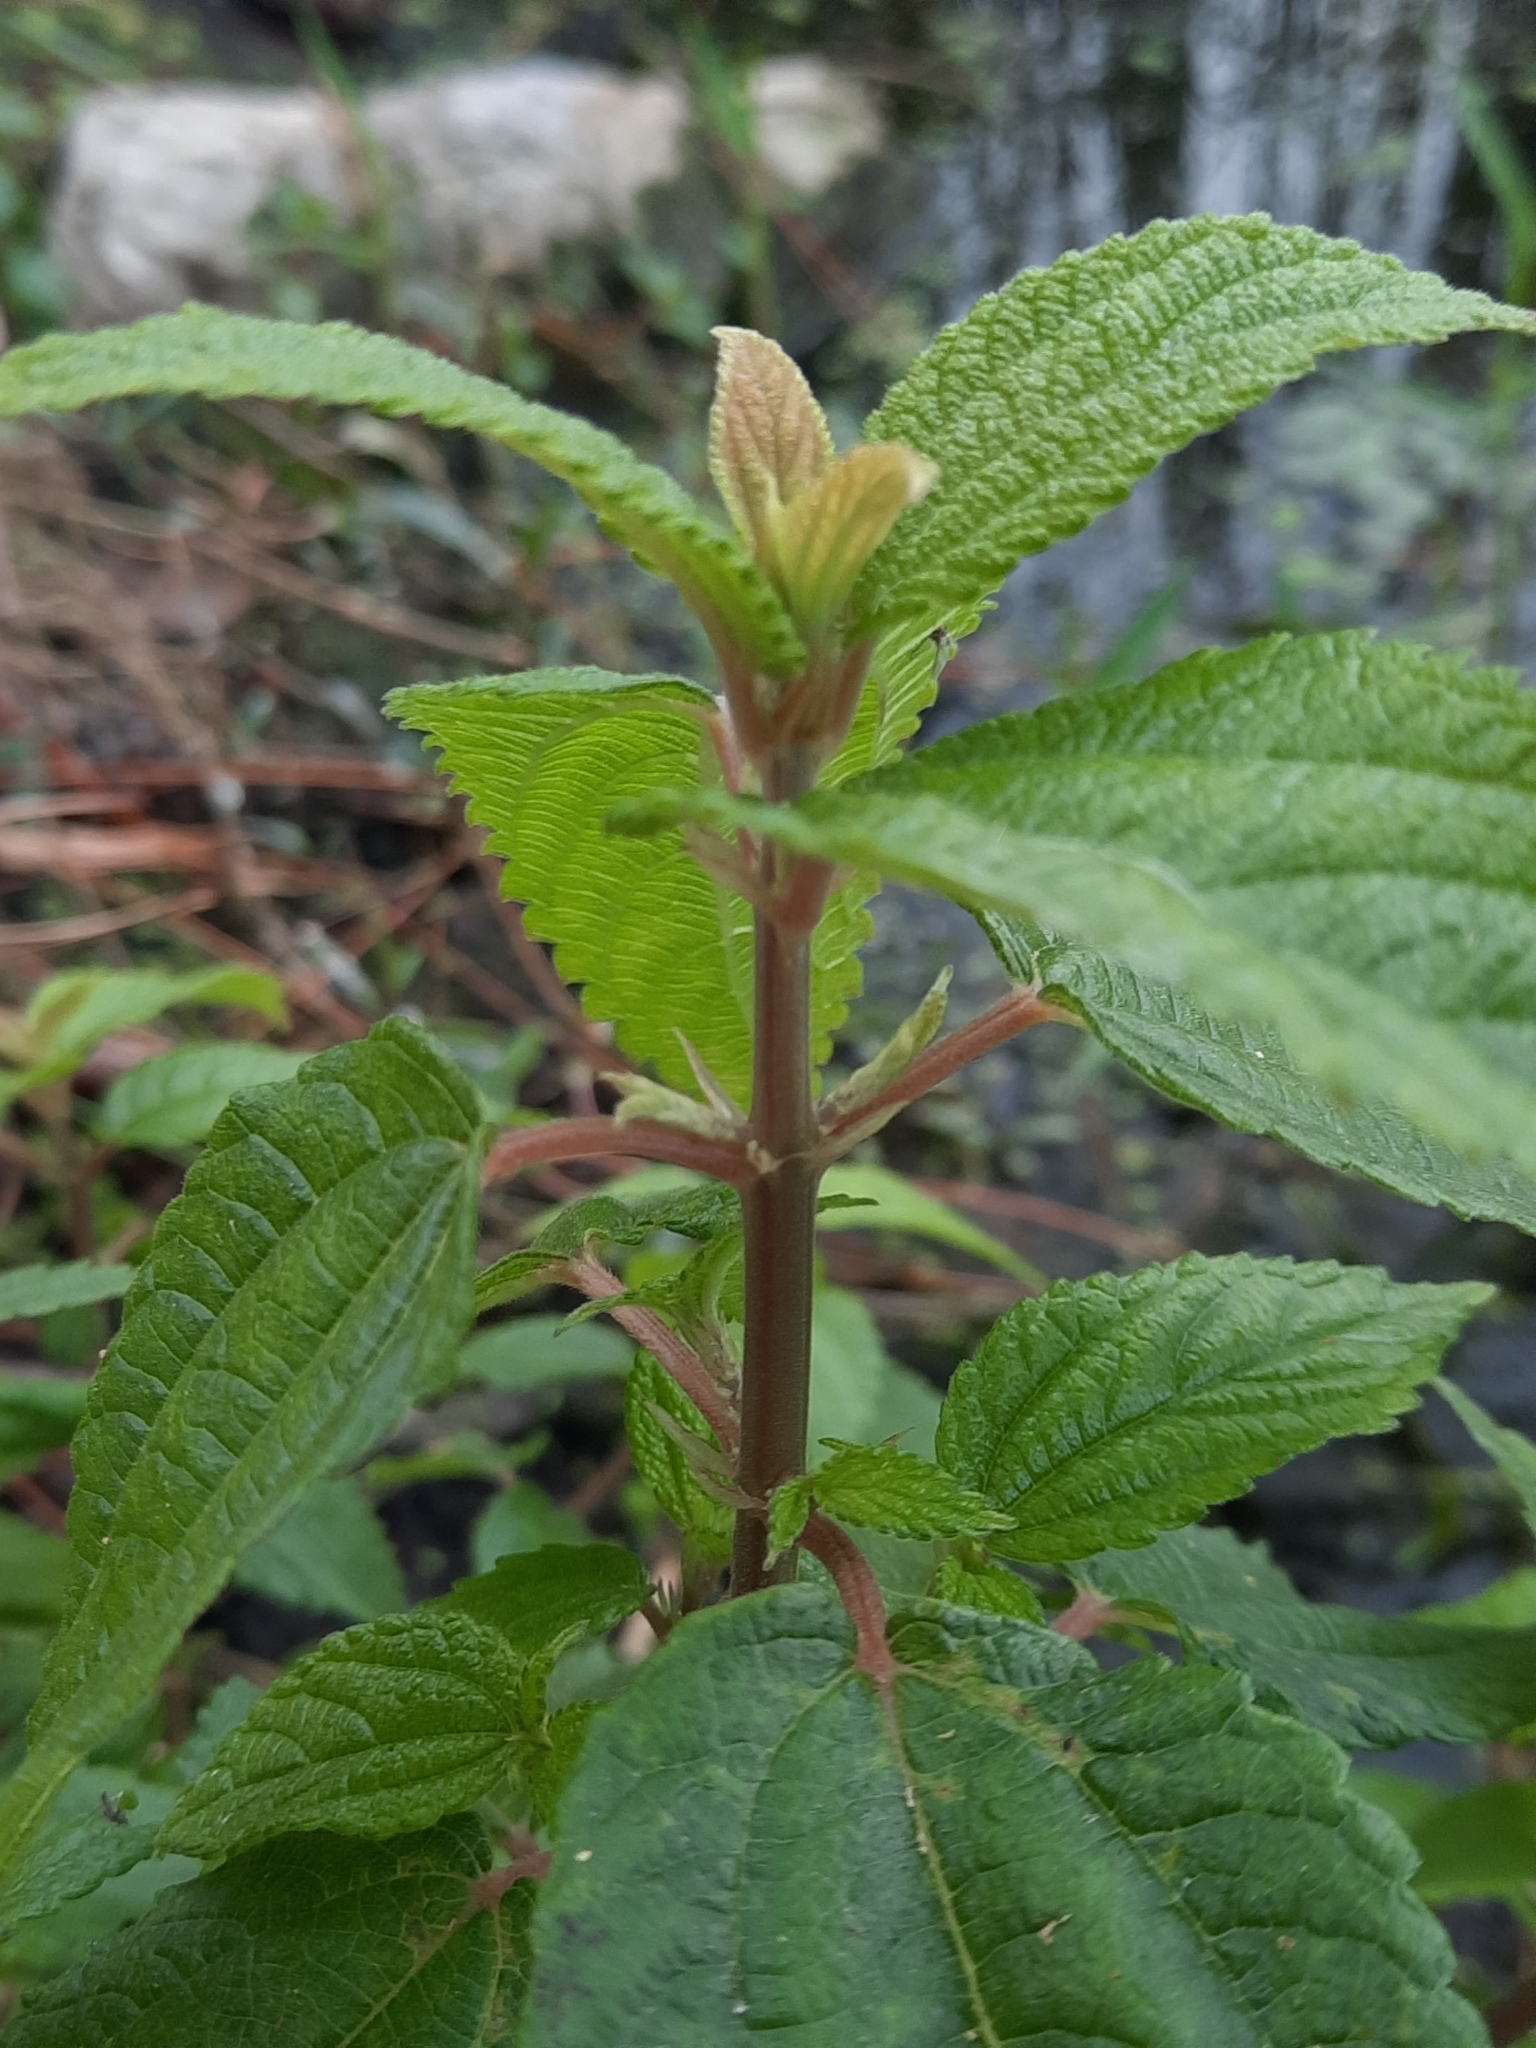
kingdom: Plantae
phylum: Tracheophyta
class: Magnoliopsida
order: Rosales
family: Urticaceae
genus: Boehmeria
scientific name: Boehmeria cylindrica
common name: Bog-hemp
